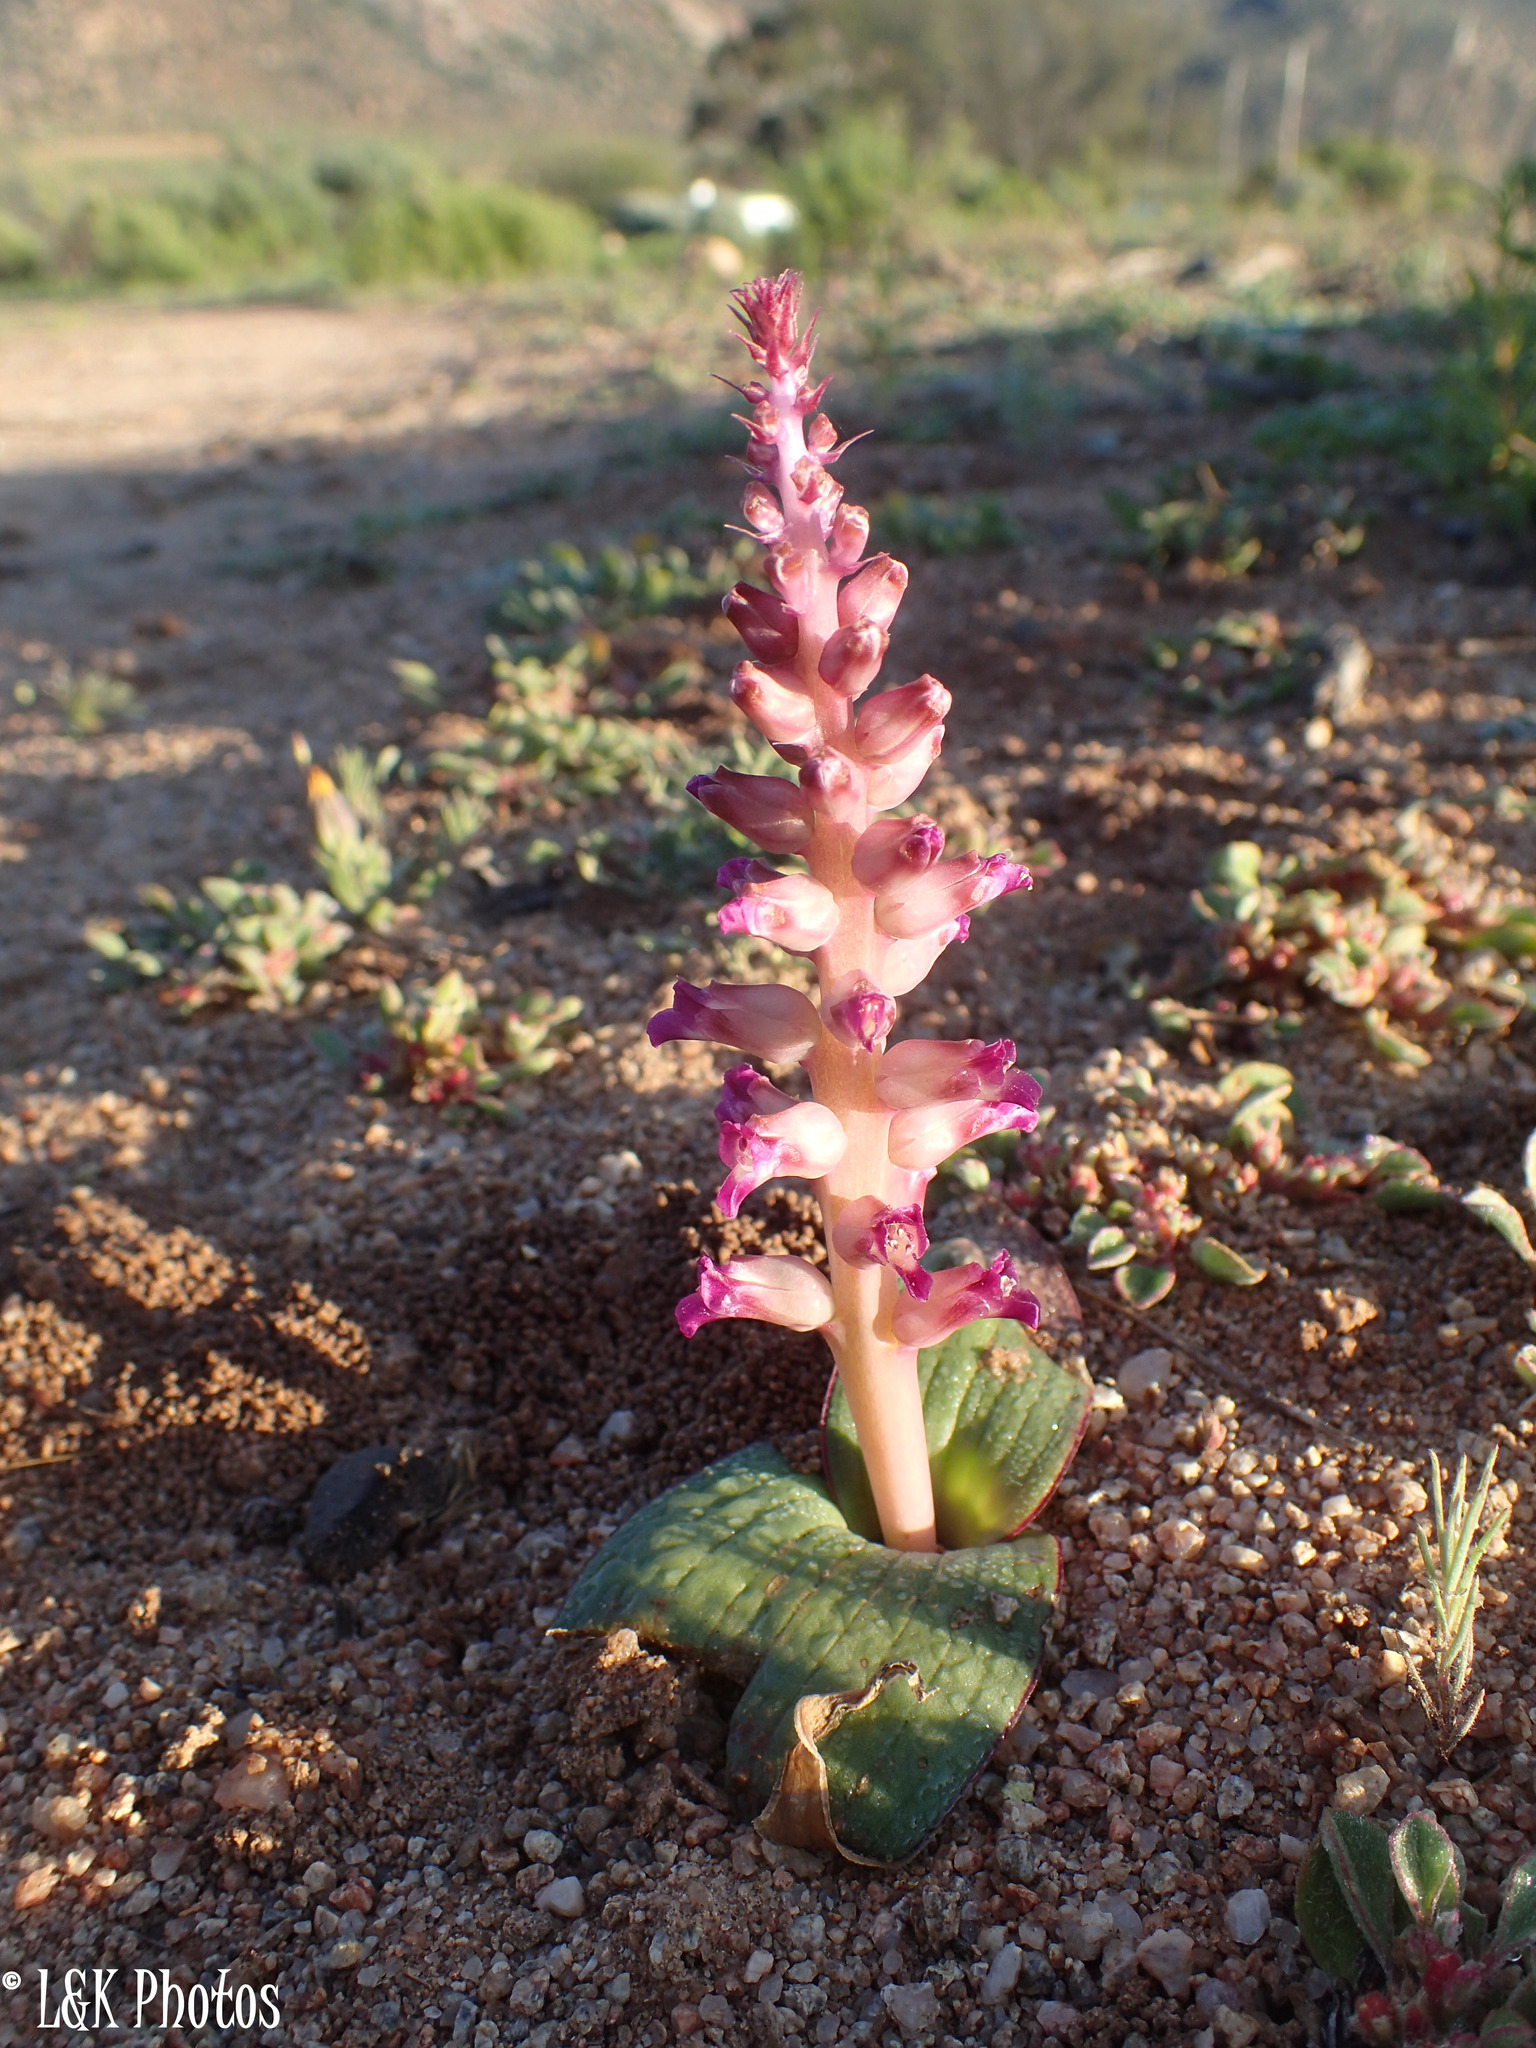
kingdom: Plantae
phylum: Tracheophyta
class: Liliopsida
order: Asparagales
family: Asparagaceae
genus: Lachenalia
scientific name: Lachenalia carnosa
